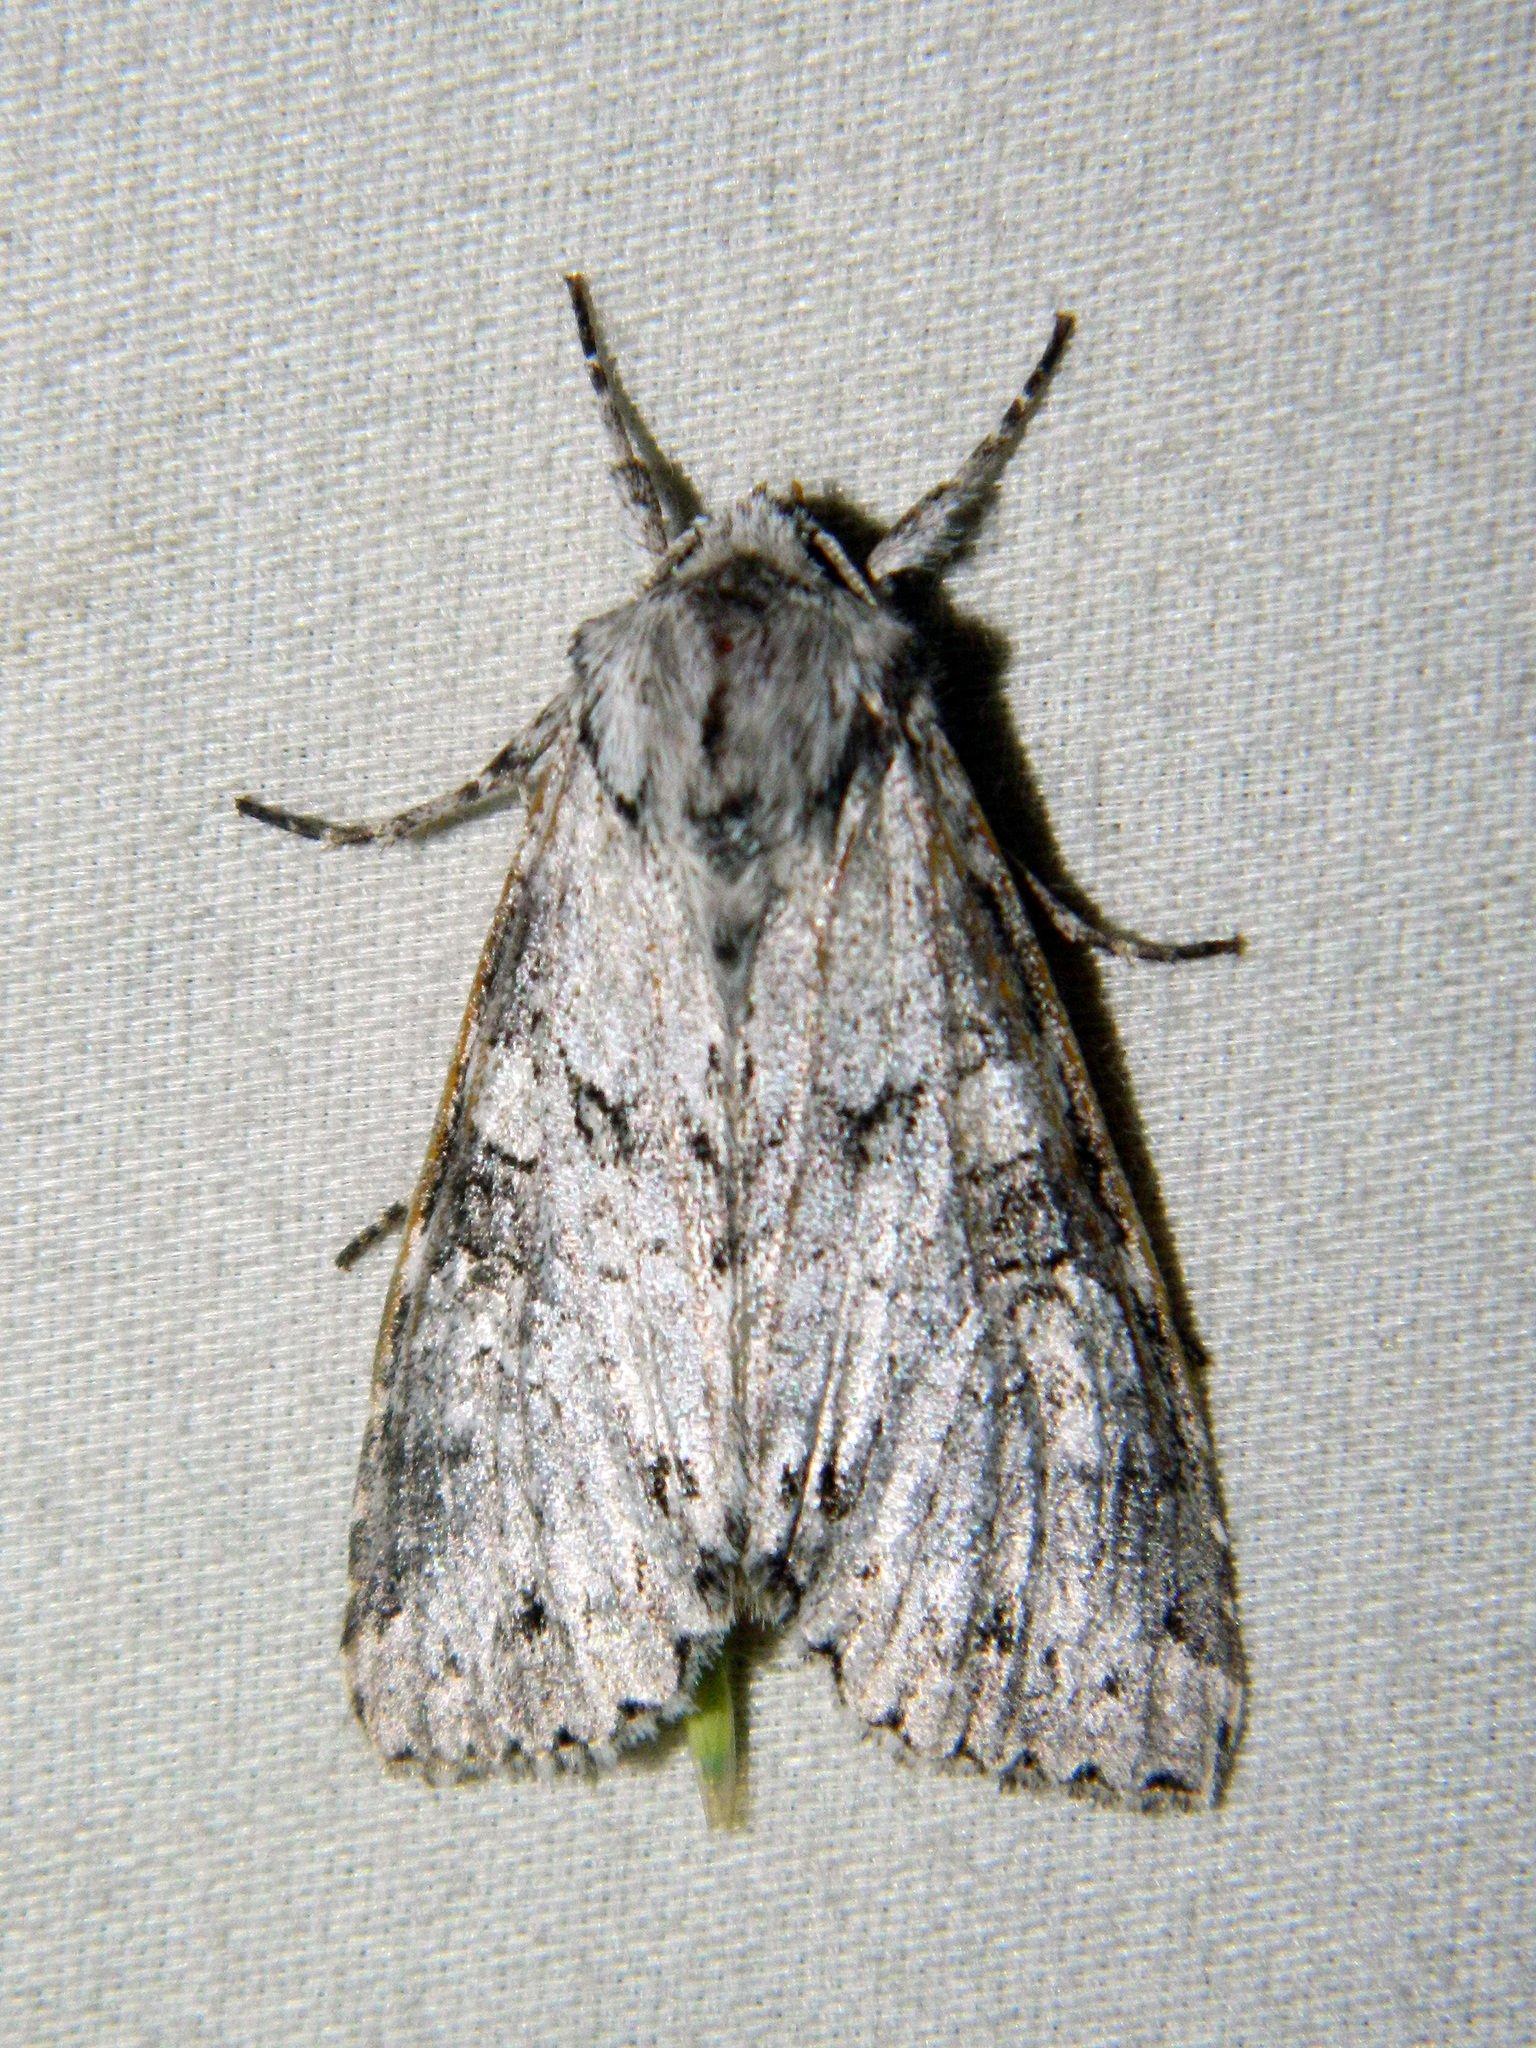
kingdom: Animalia
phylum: Arthropoda
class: Insecta
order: Lepidoptera
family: Noctuidae
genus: Polia
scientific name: Polia nimbosa
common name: Stormy arches
